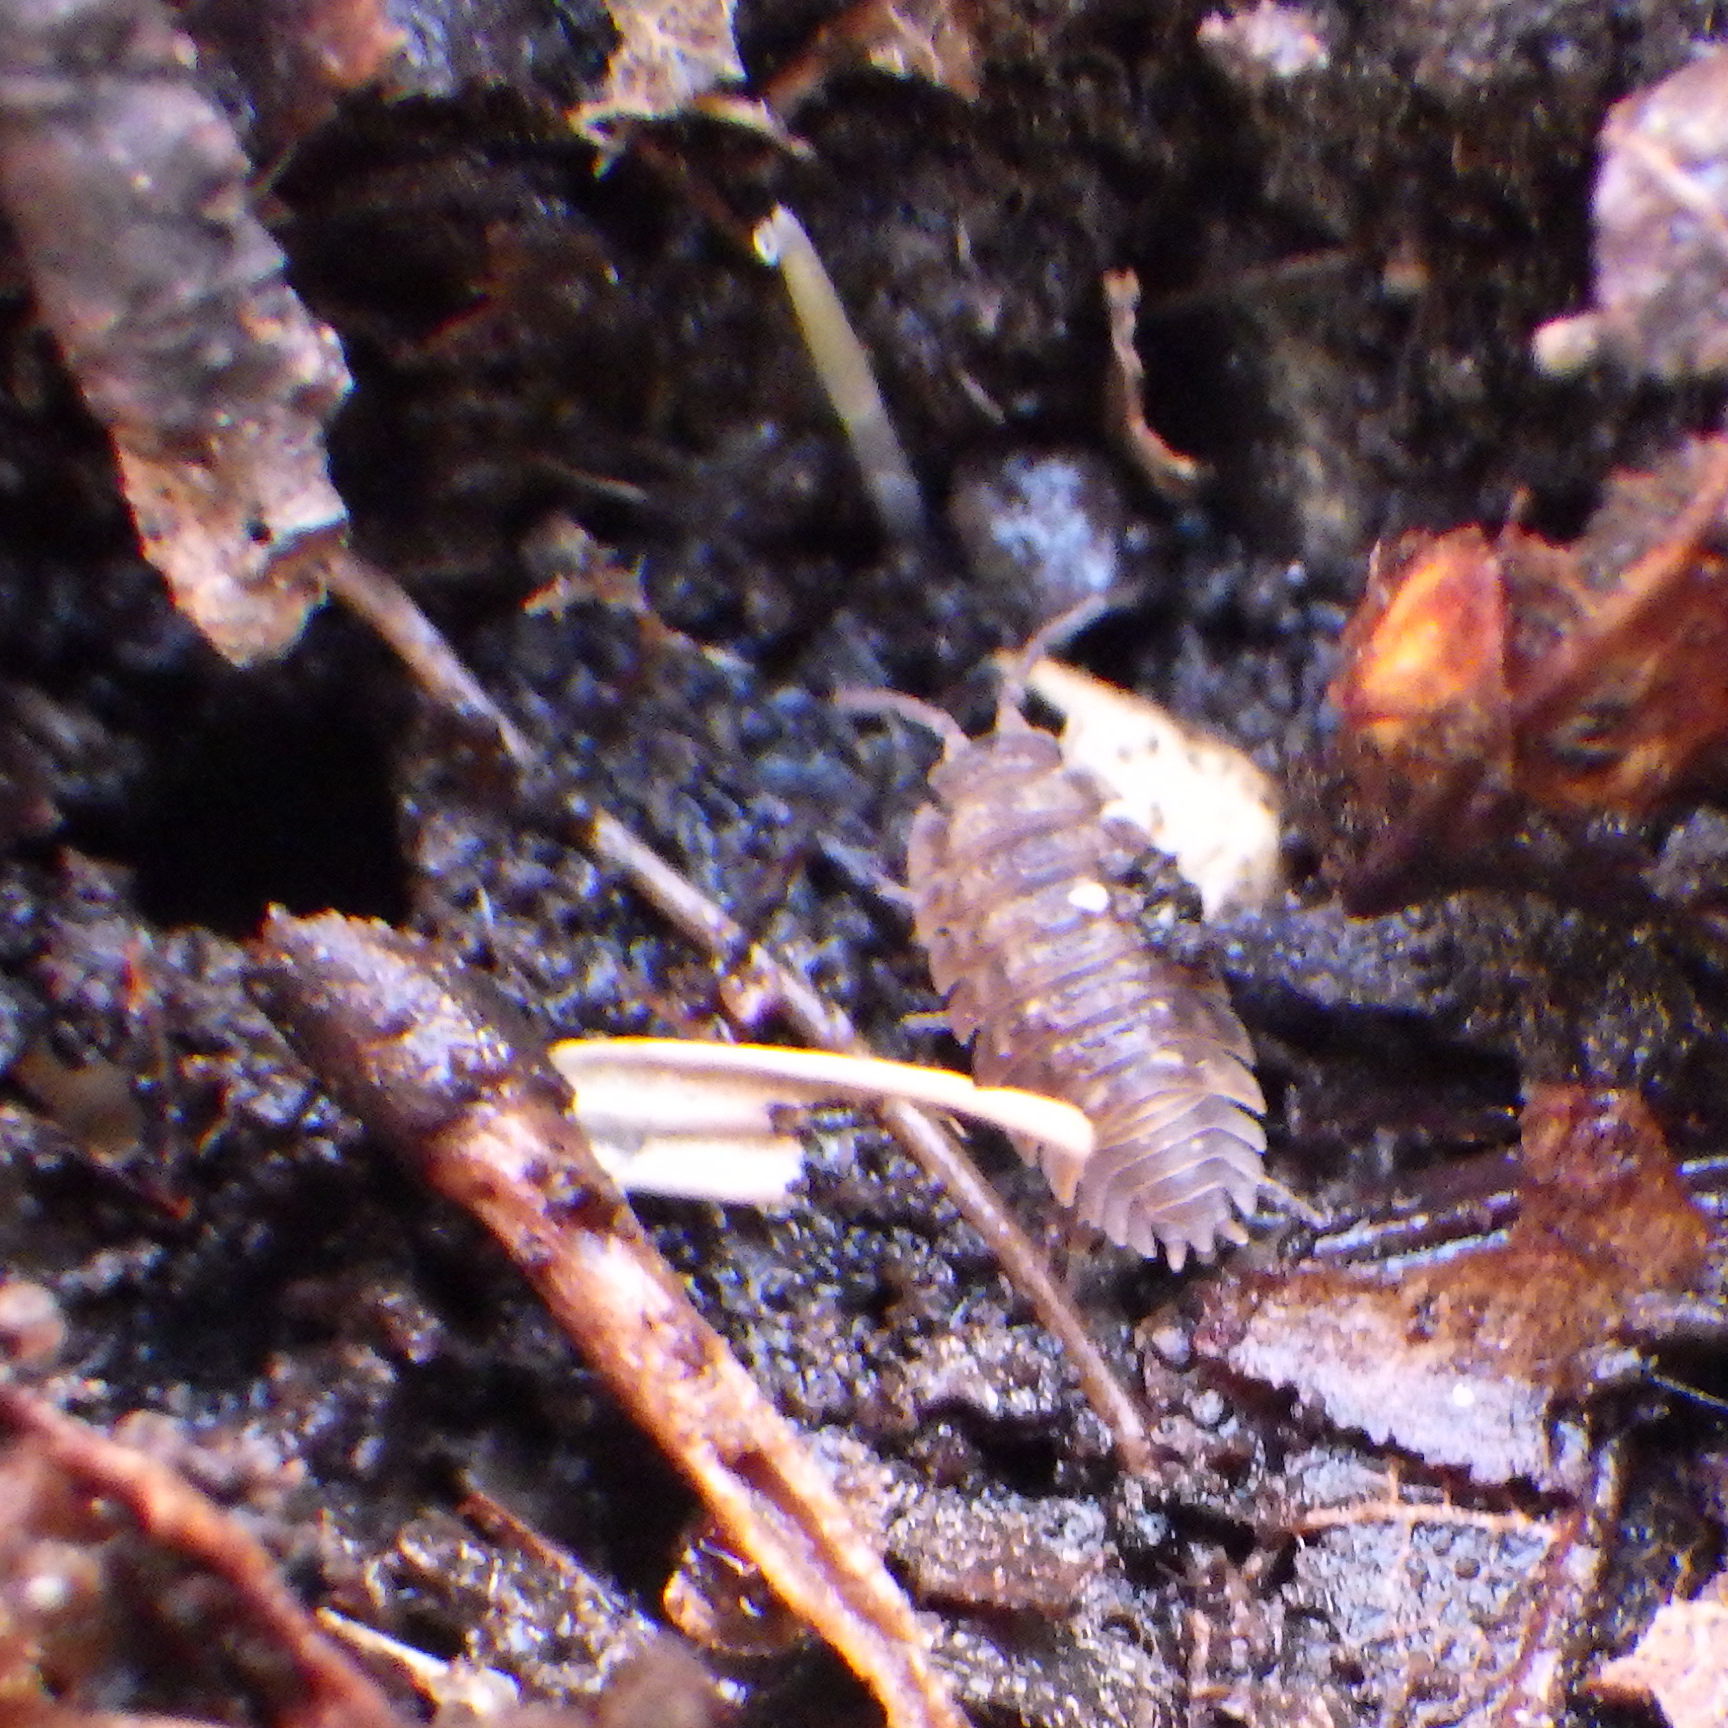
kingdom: Animalia
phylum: Arthropoda
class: Malacostraca
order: Isopoda
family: Oniscidae
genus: Oniscus
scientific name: Oniscus asellus
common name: Common shiny woodlouse
